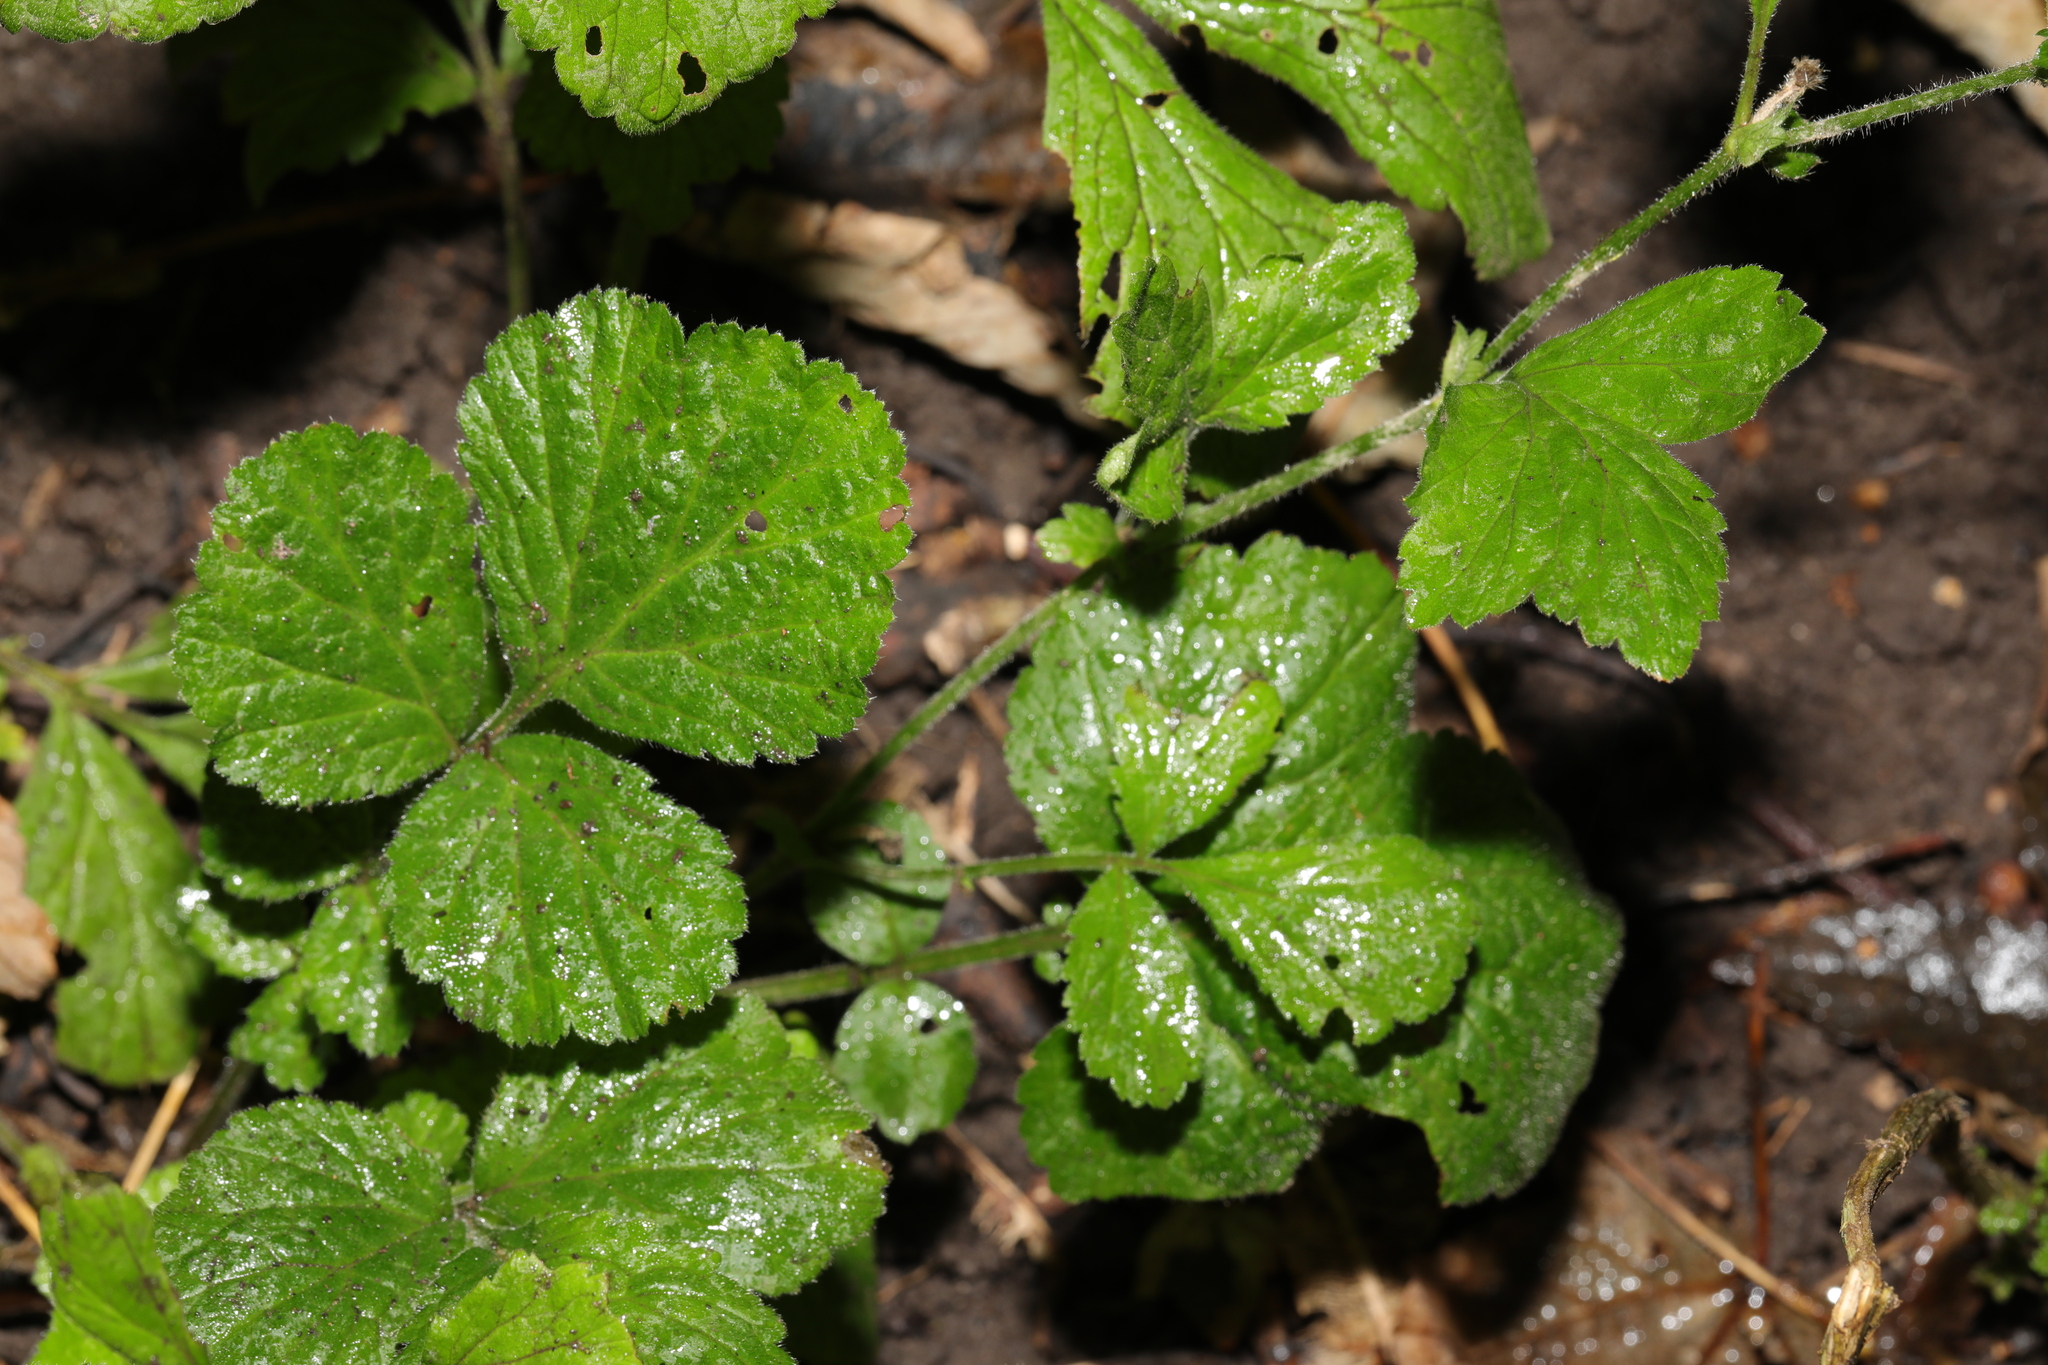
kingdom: Plantae
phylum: Tracheophyta
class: Magnoliopsida
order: Rosales
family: Rosaceae
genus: Geum
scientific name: Geum urbanum
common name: Wood avens
